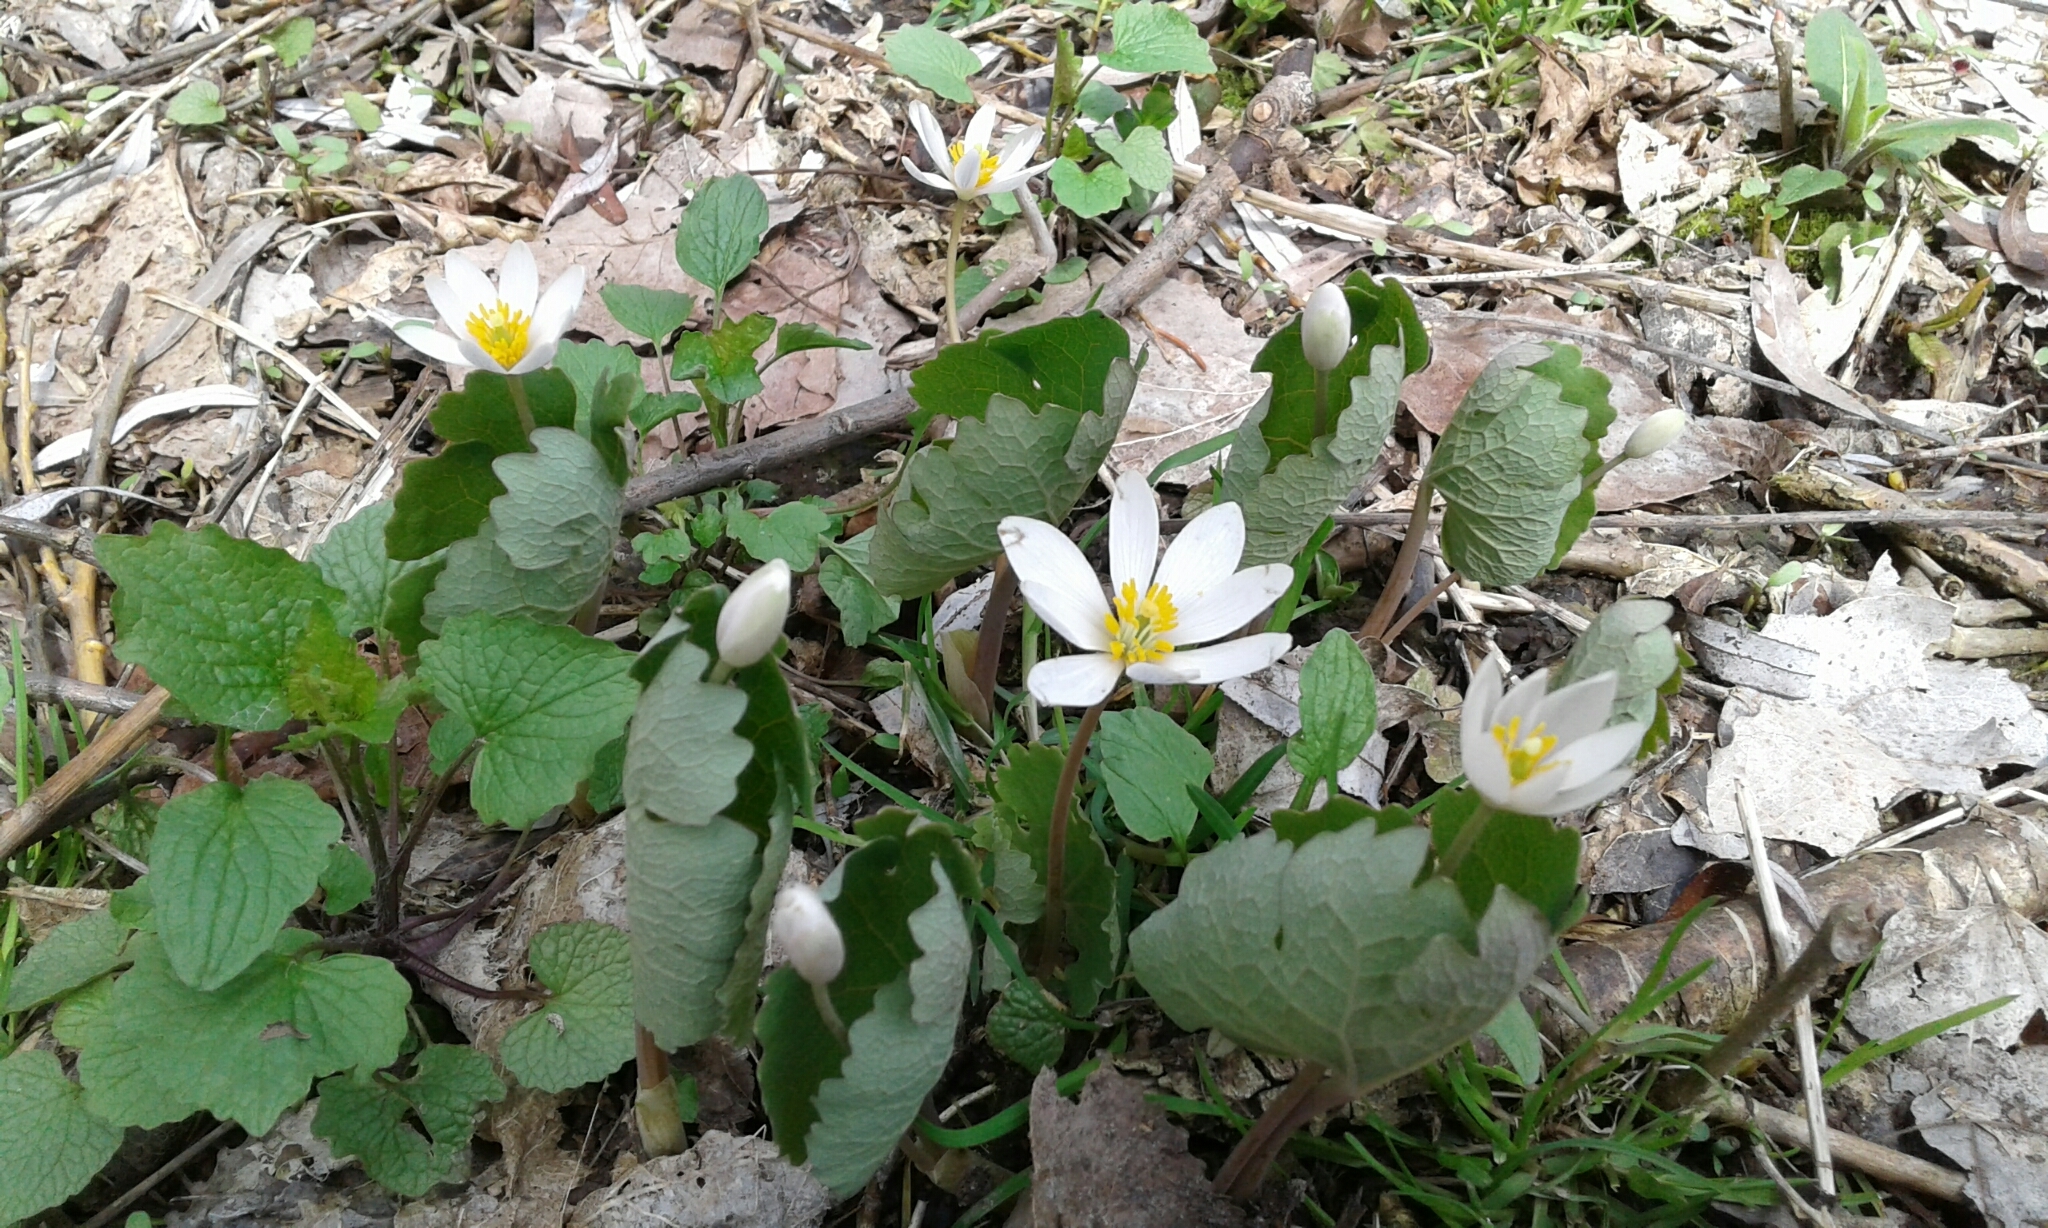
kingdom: Plantae
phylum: Tracheophyta
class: Magnoliopsida
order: Ranunculales
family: Papaveraceae
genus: Sanguinaria
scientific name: Sanguinaria canadensis
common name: Bloodroot
